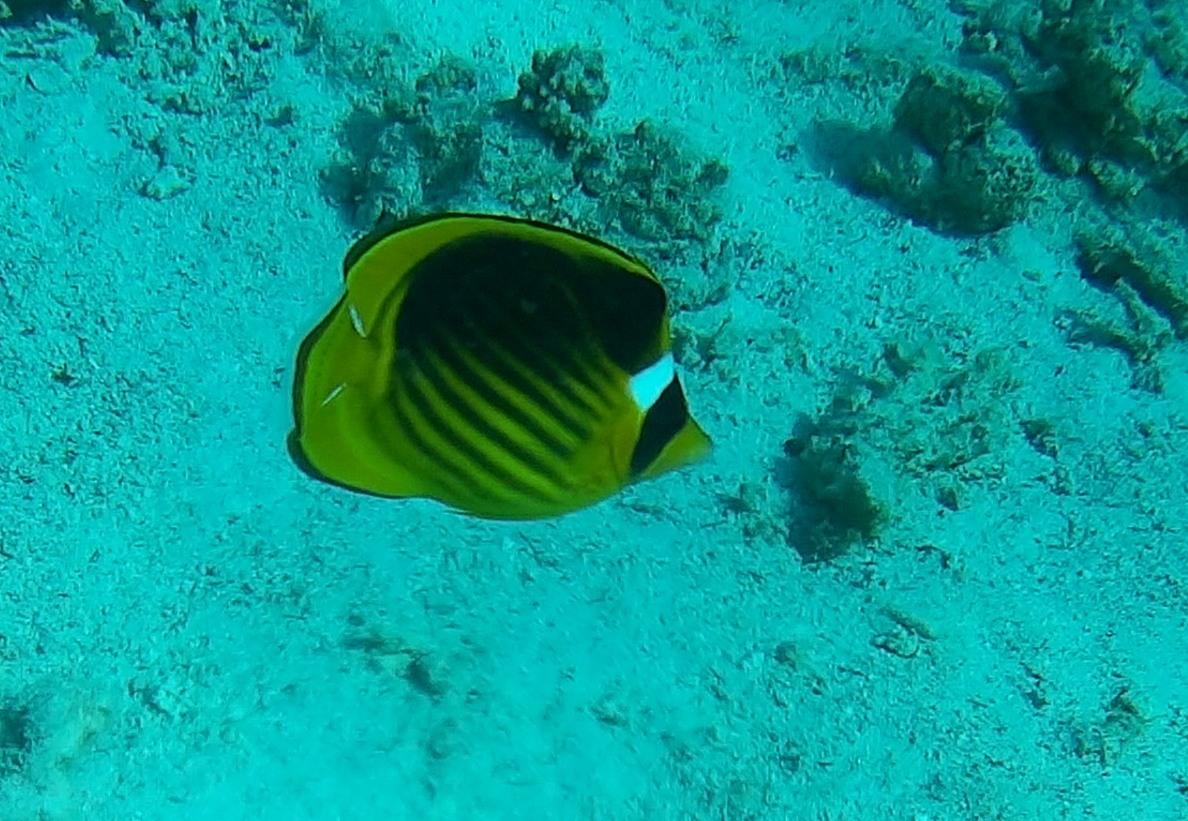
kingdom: Animalia
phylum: Chordata
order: Perciformes
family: Chaetodontidae
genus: Chaetodon
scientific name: Chaetodon fasciatus
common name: Diagonal butterflyfish
